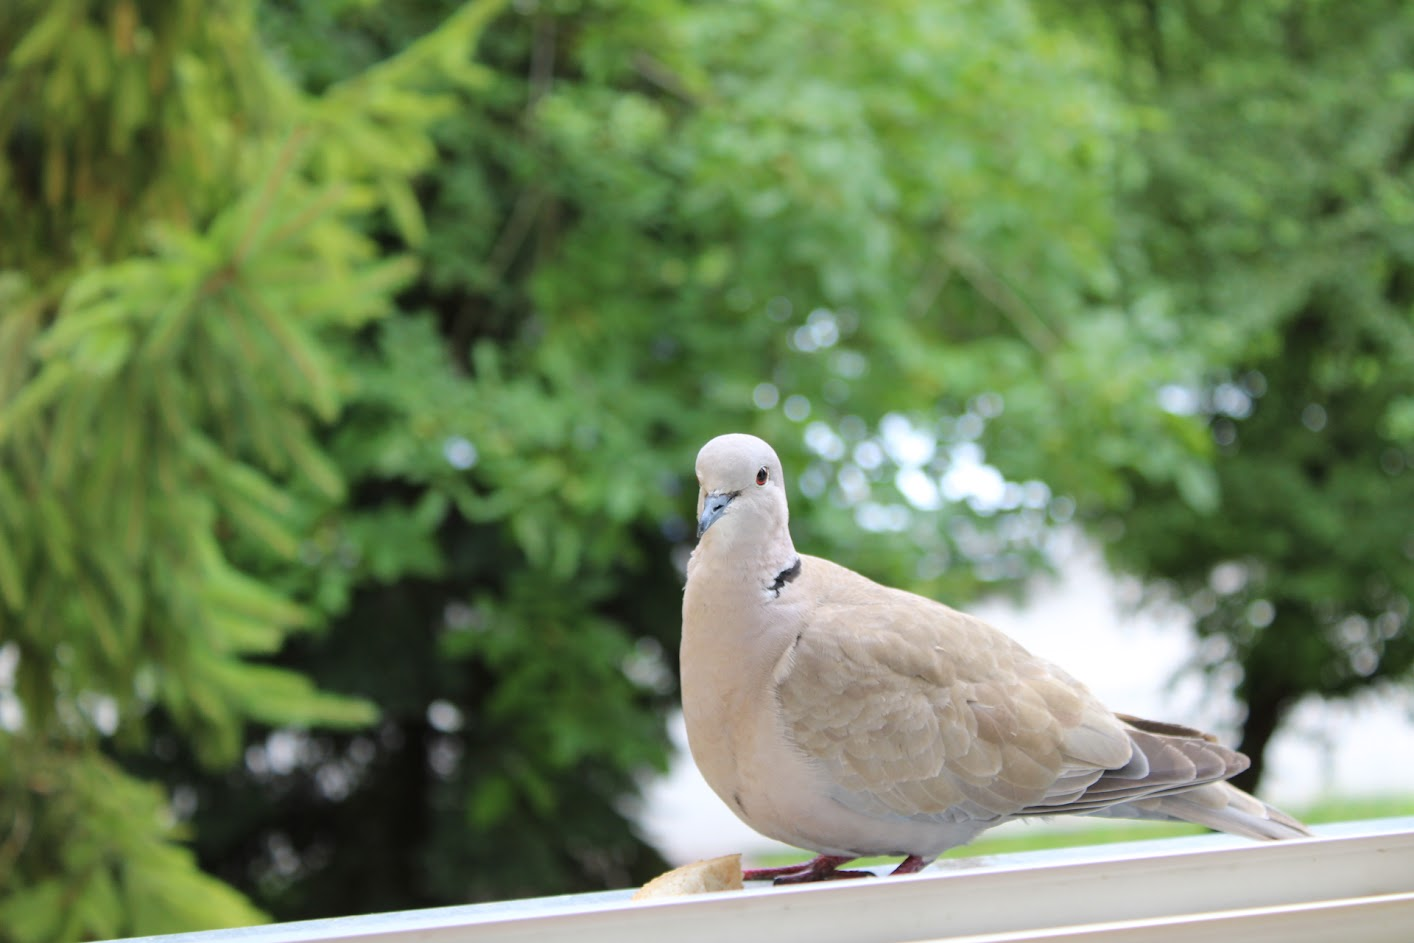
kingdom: Animalia
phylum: Chordata
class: Aves
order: Columbiformes
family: Columbidae
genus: Streptopelia
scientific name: Streptopelia decaocto
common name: Eurasian collared dove
